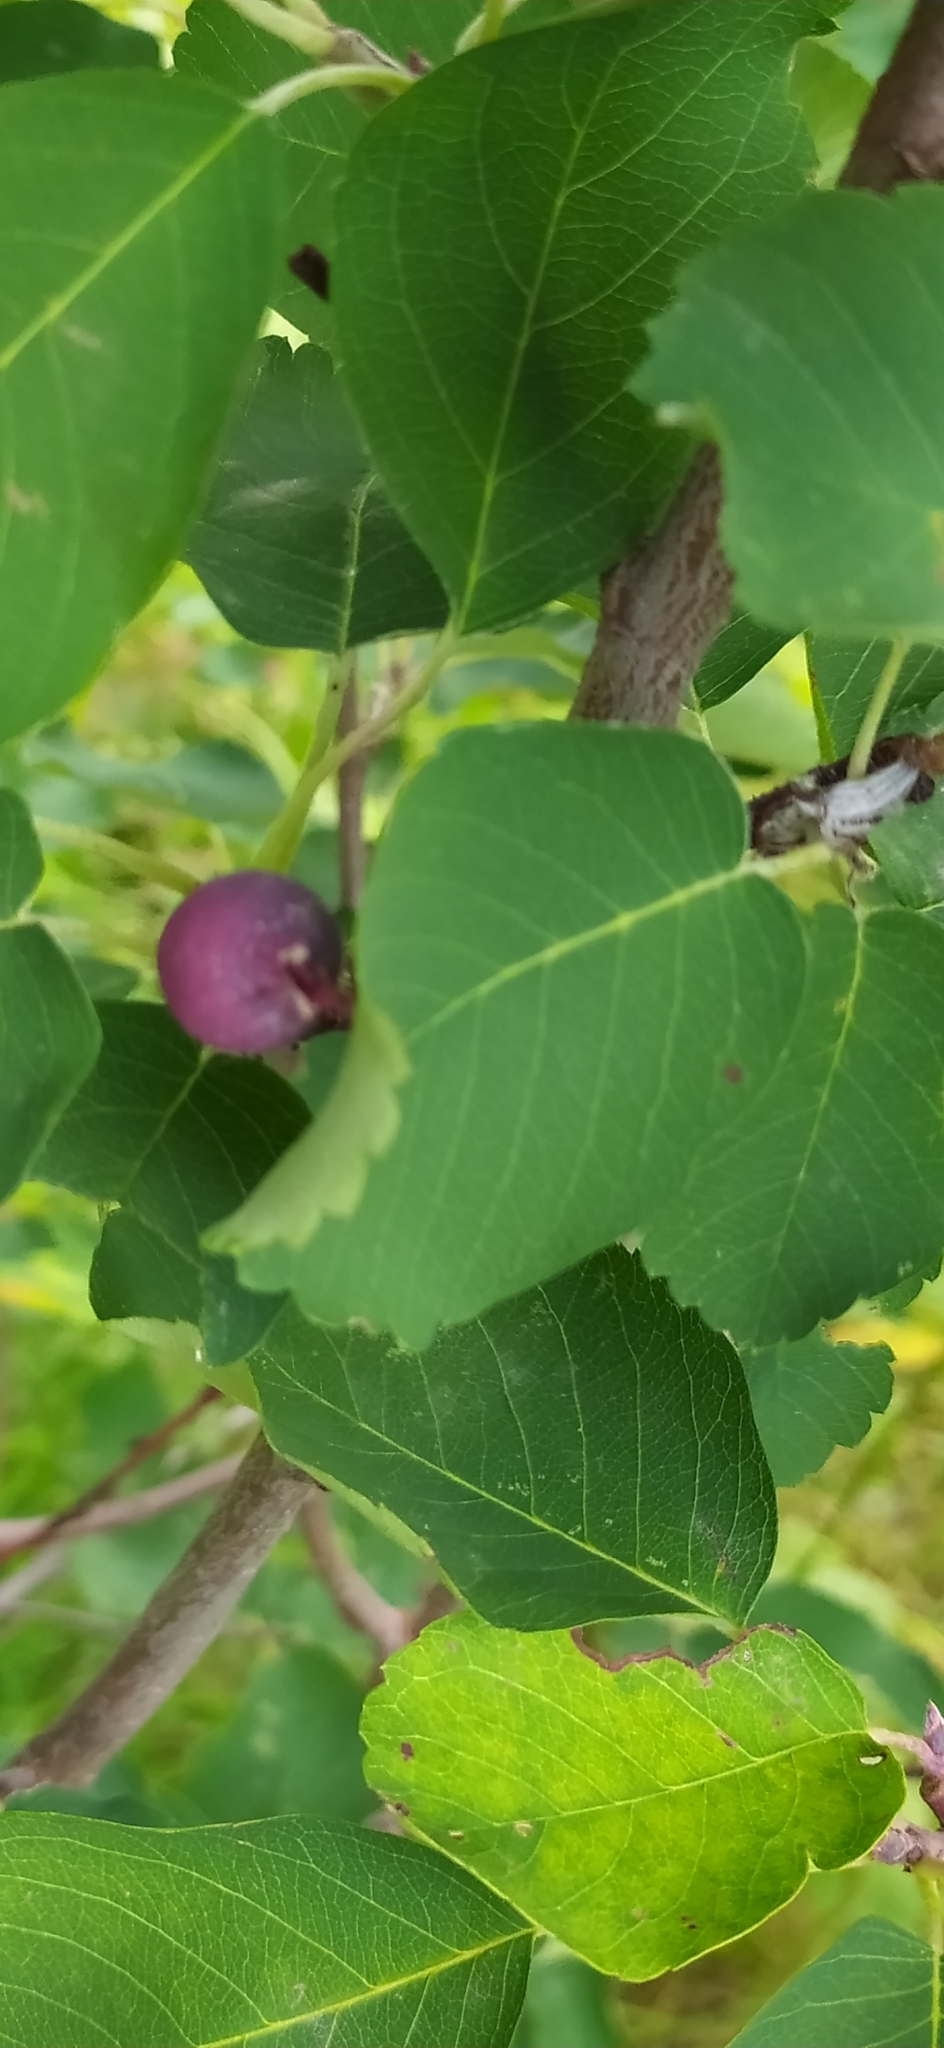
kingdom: Plantae
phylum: Tracheophyta
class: Magnoliopsida
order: Rosales
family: Rosaceae
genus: Amelanchier
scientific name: Amelanchier alnifolia
